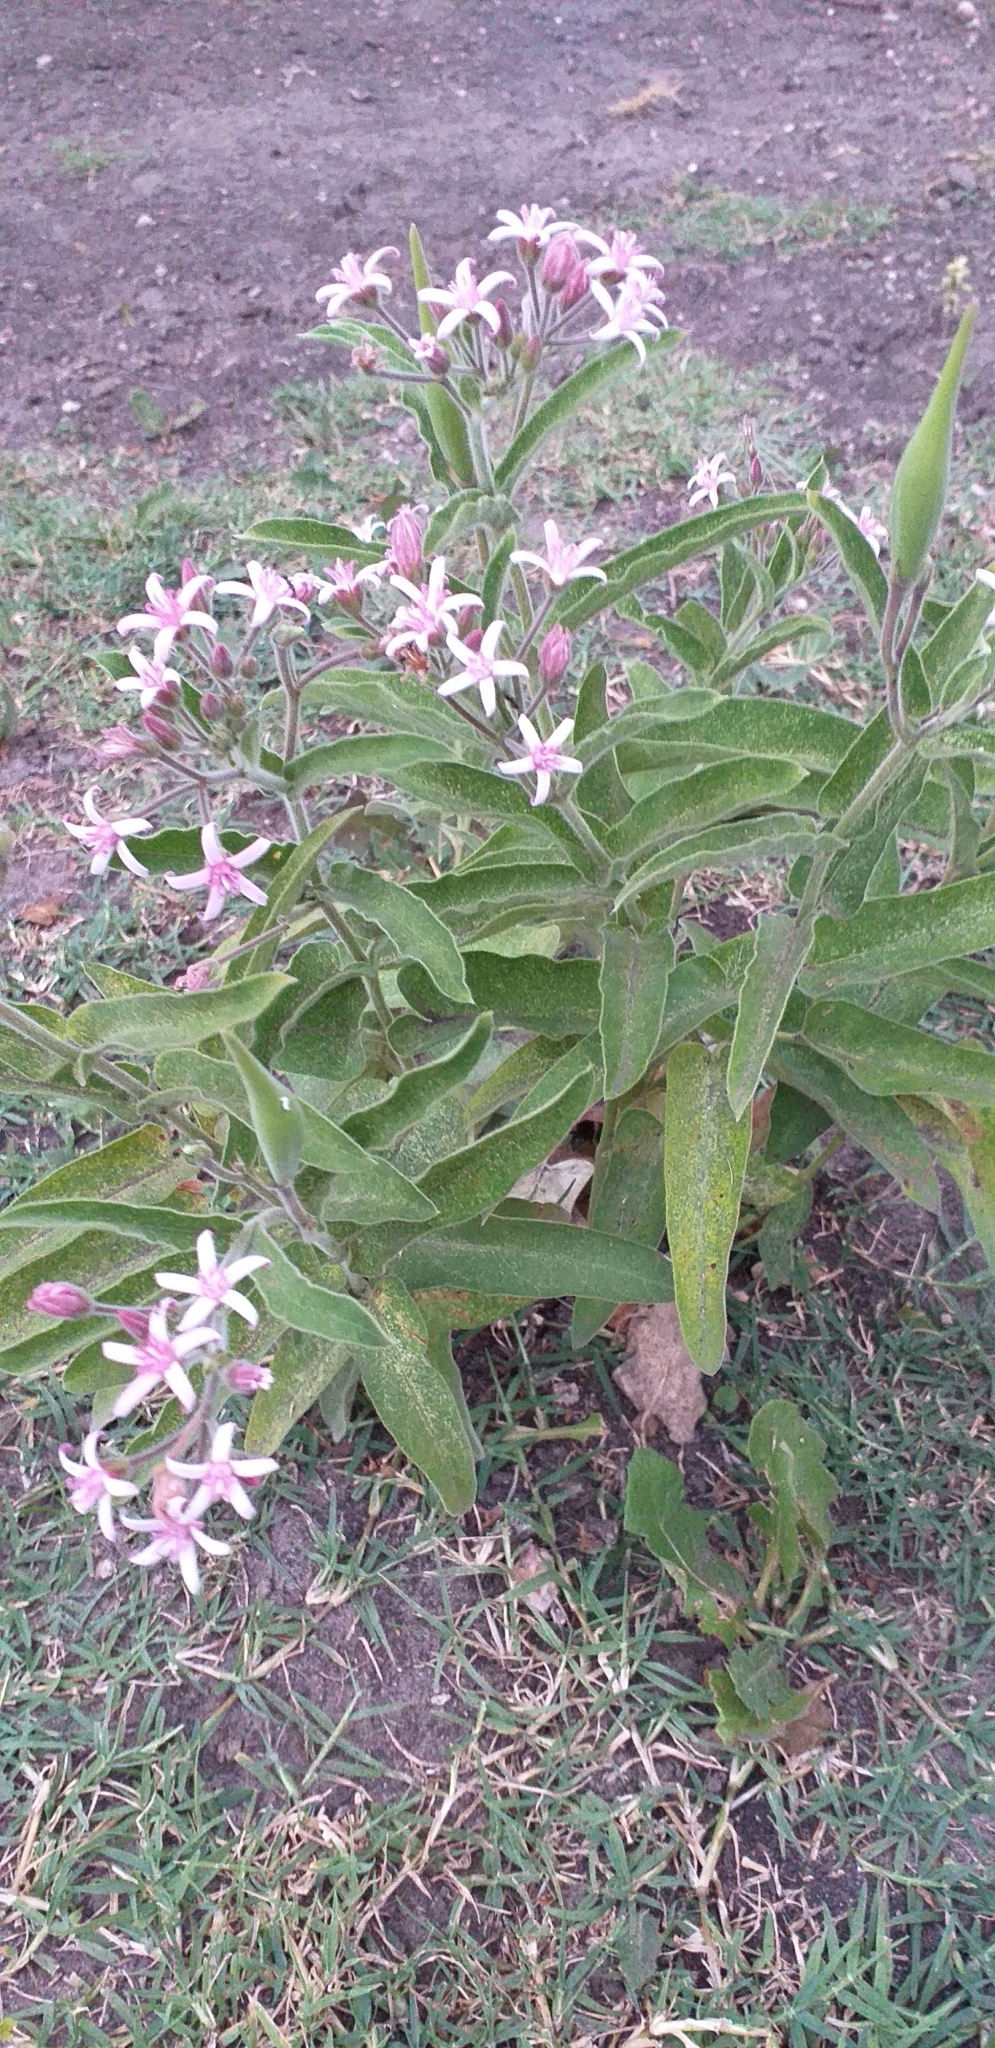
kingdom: Plantae
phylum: Tracheophyta
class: Magnoliopsida
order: Gentianales
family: Apocynaceae
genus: Oxypetalum
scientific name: Oxypetalum solanoides
